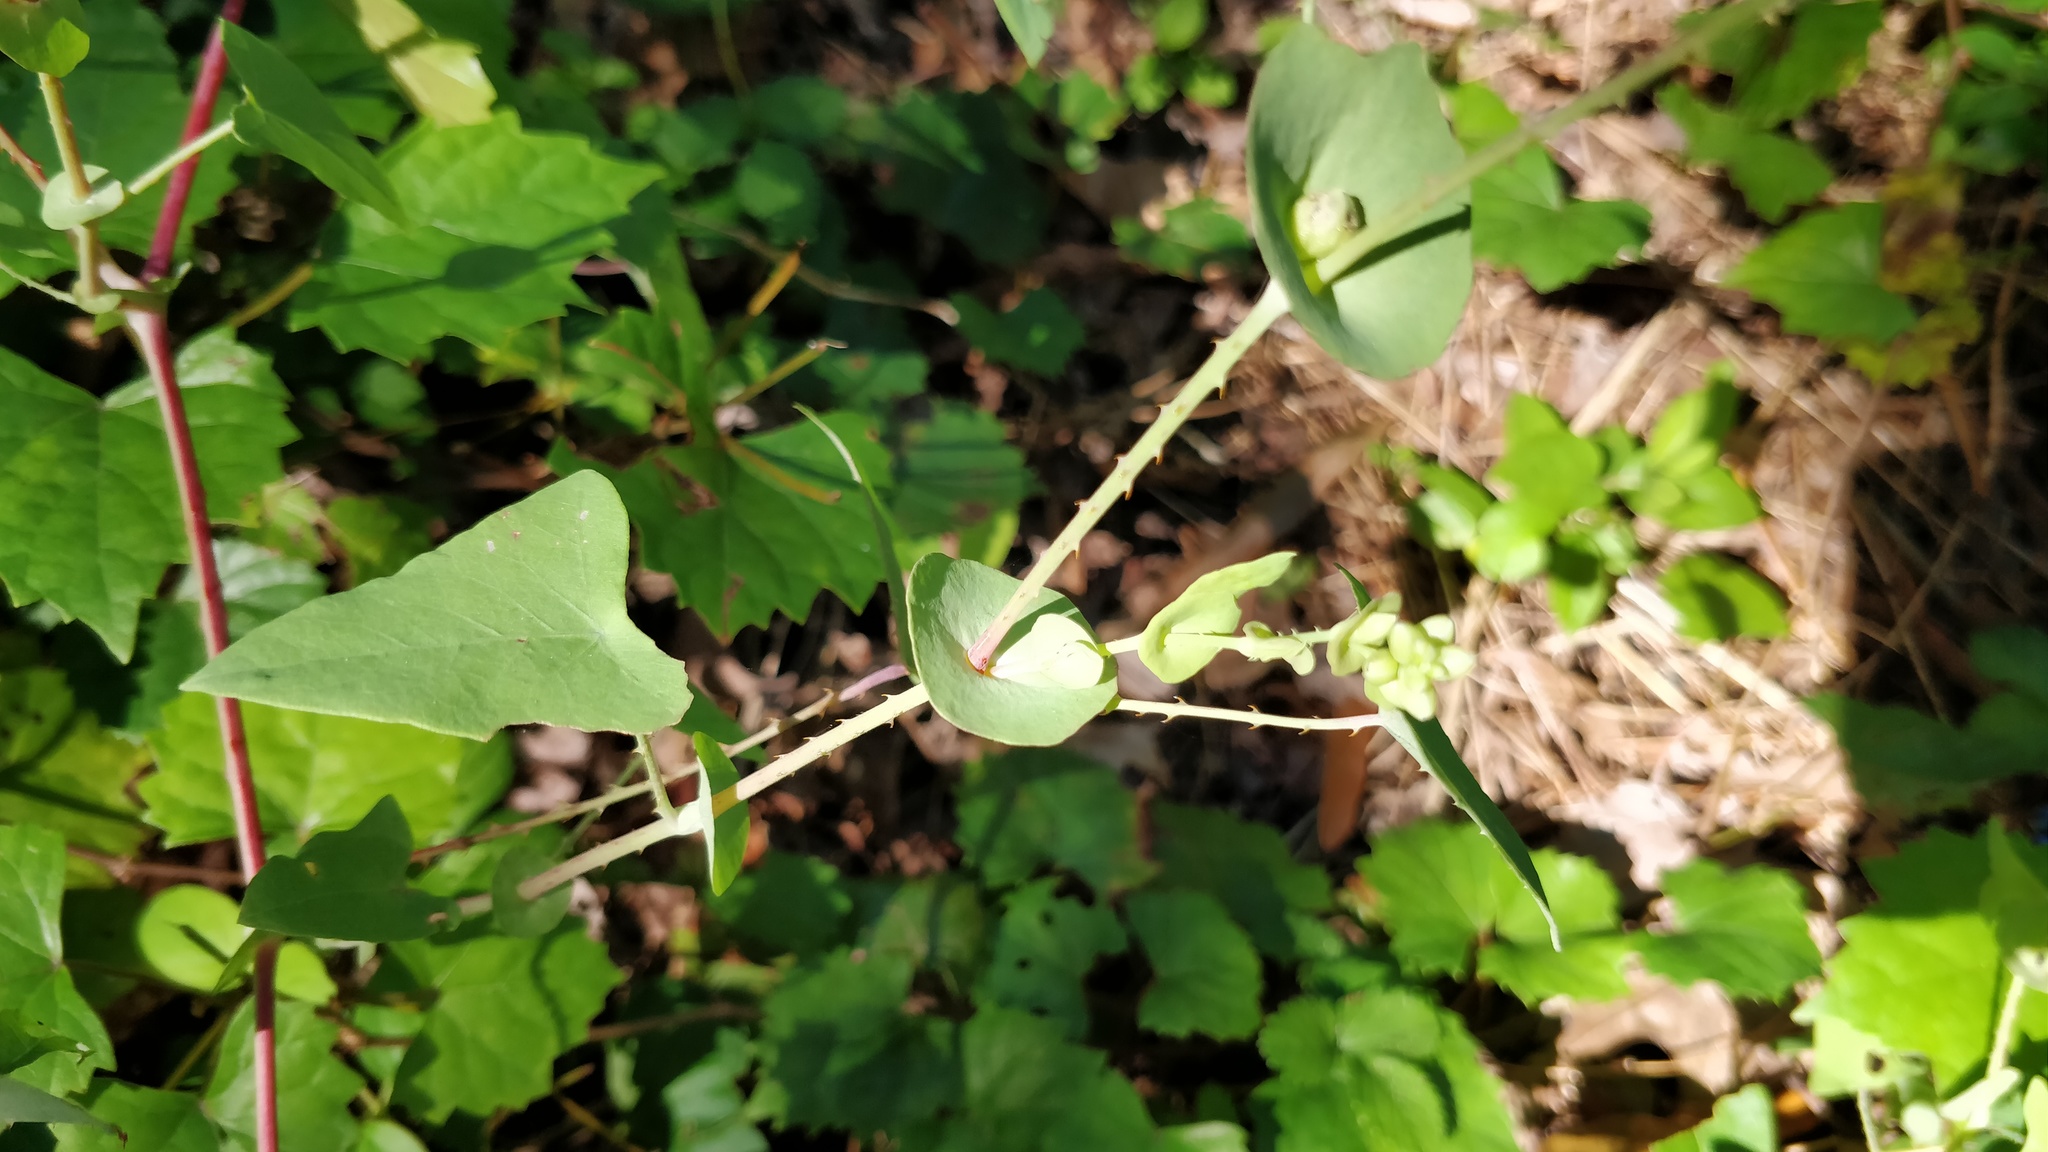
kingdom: Plantae
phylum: Tracheophyta
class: Magnoliopsida
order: Caryophyllales
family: Polygonaceae
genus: Persicaria
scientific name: Persicaria perfoliata
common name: Asiatic tearthumb
